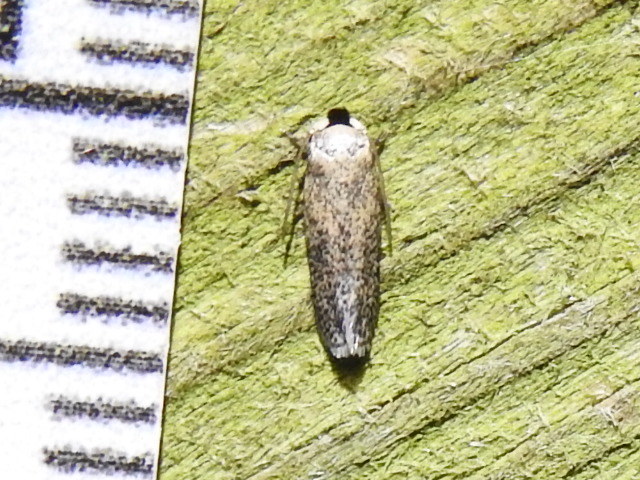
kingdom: Animalia
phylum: Arthropoda
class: Insecta
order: Lepidoptera
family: Nepticulidae
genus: Zimmermannia
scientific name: Zimmermannia bosquella
